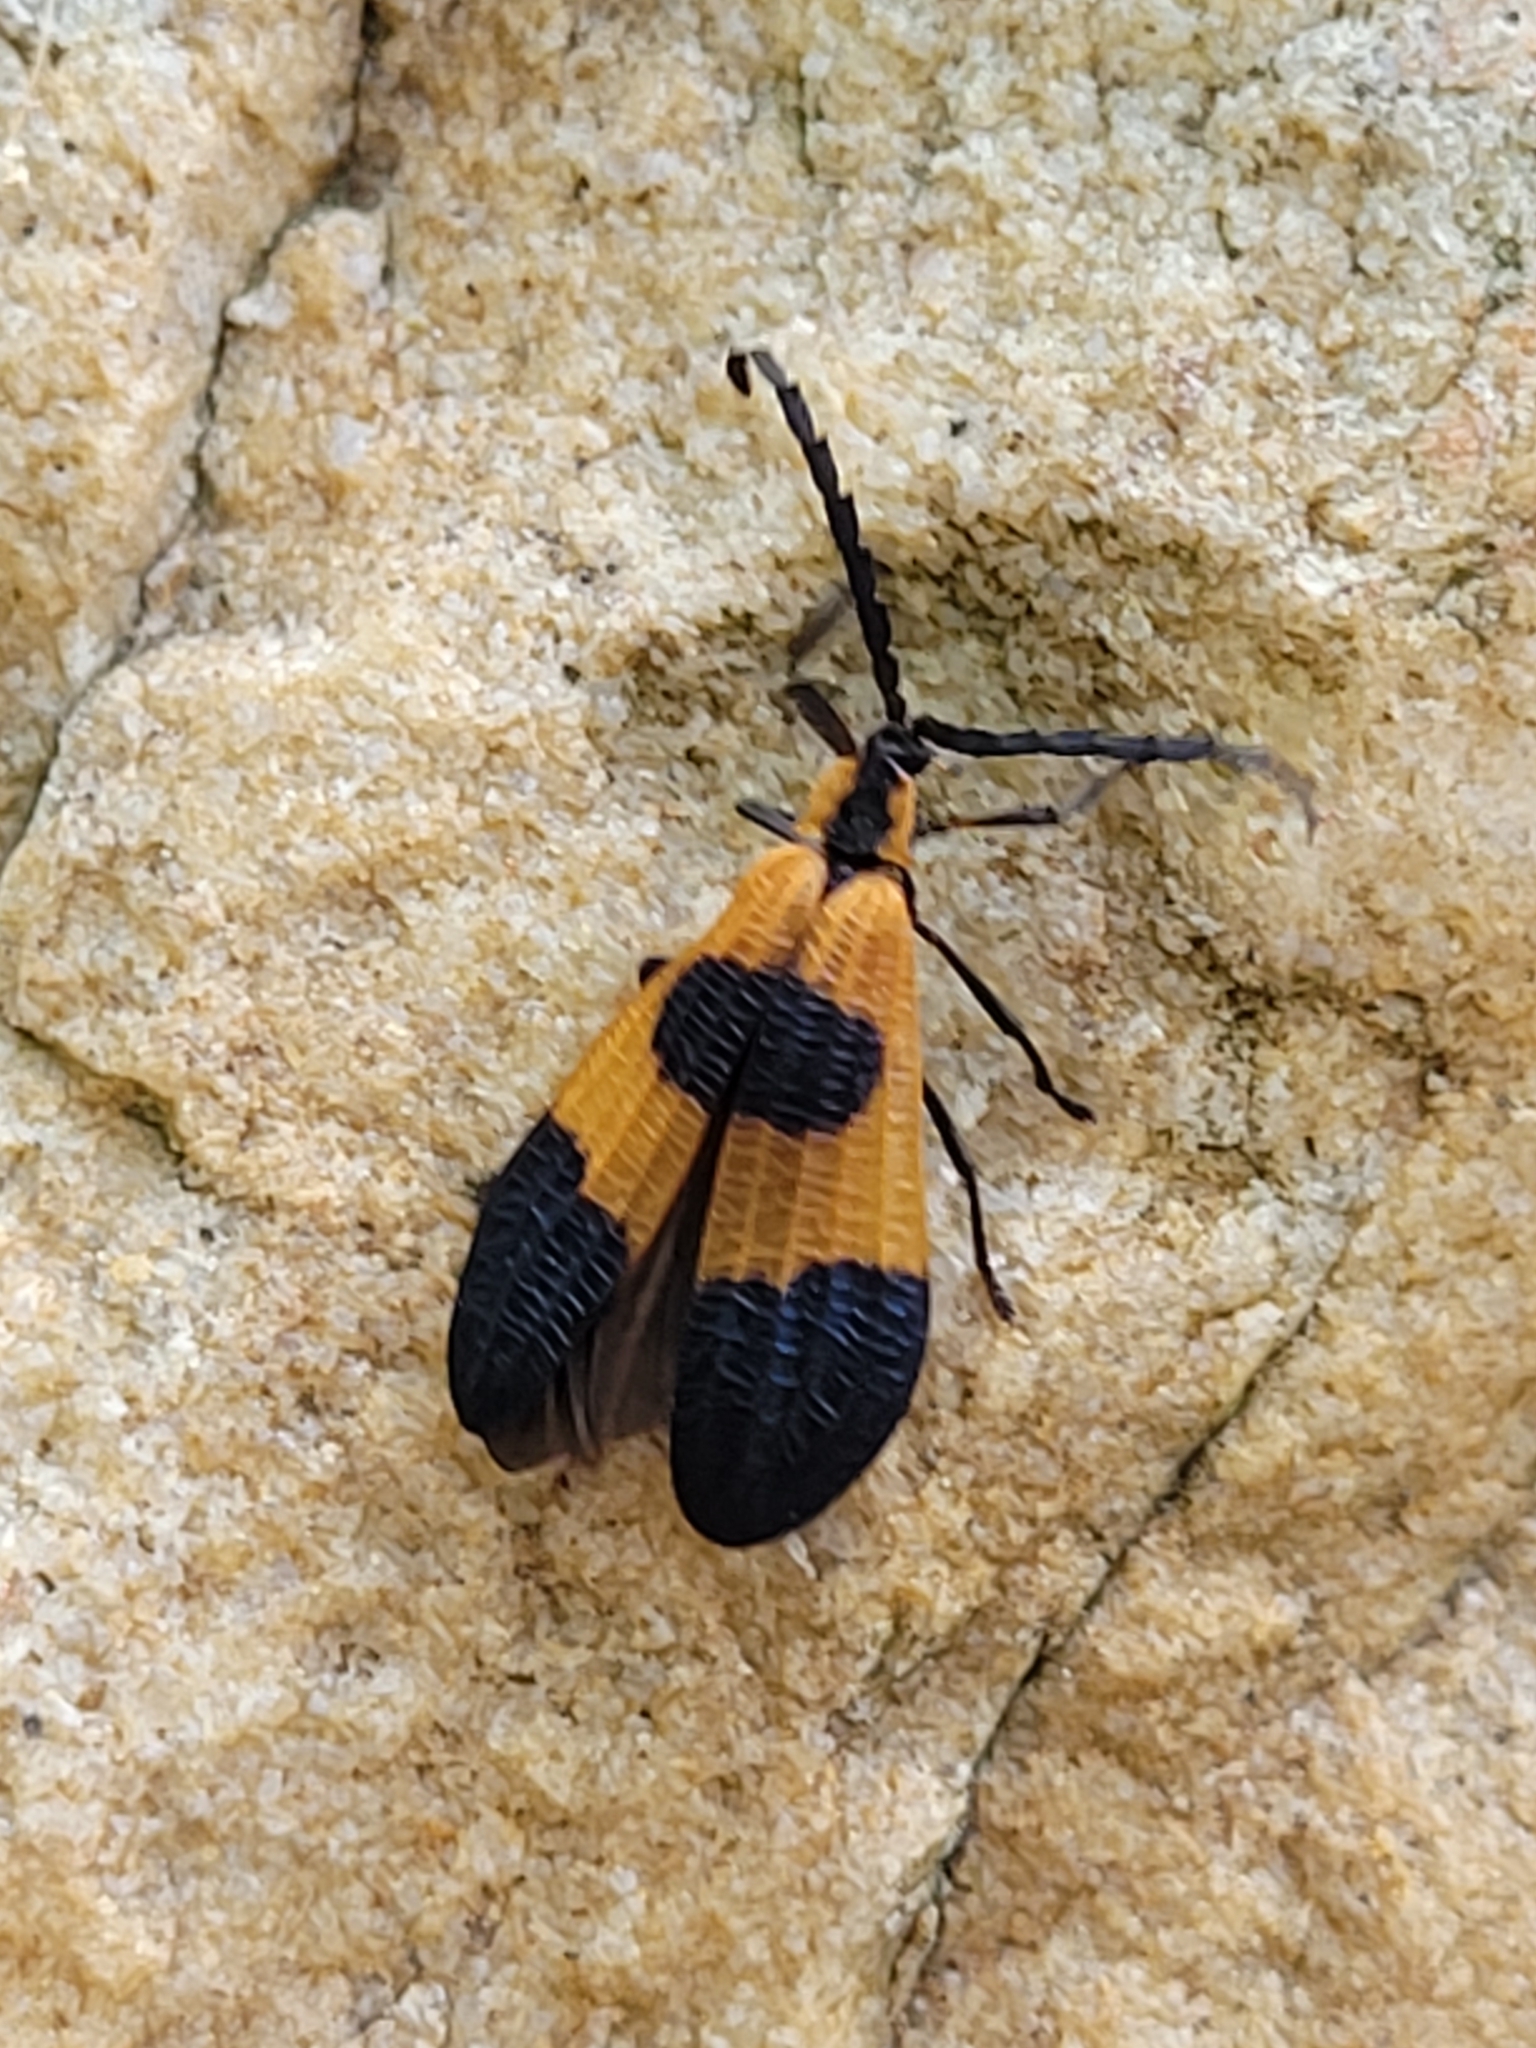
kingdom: Animalia
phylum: Arthropoda
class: Insecta
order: Coleoptera
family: Lycidae
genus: Calopteron
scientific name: Calopteron terminale
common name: End band net-winged beetle
